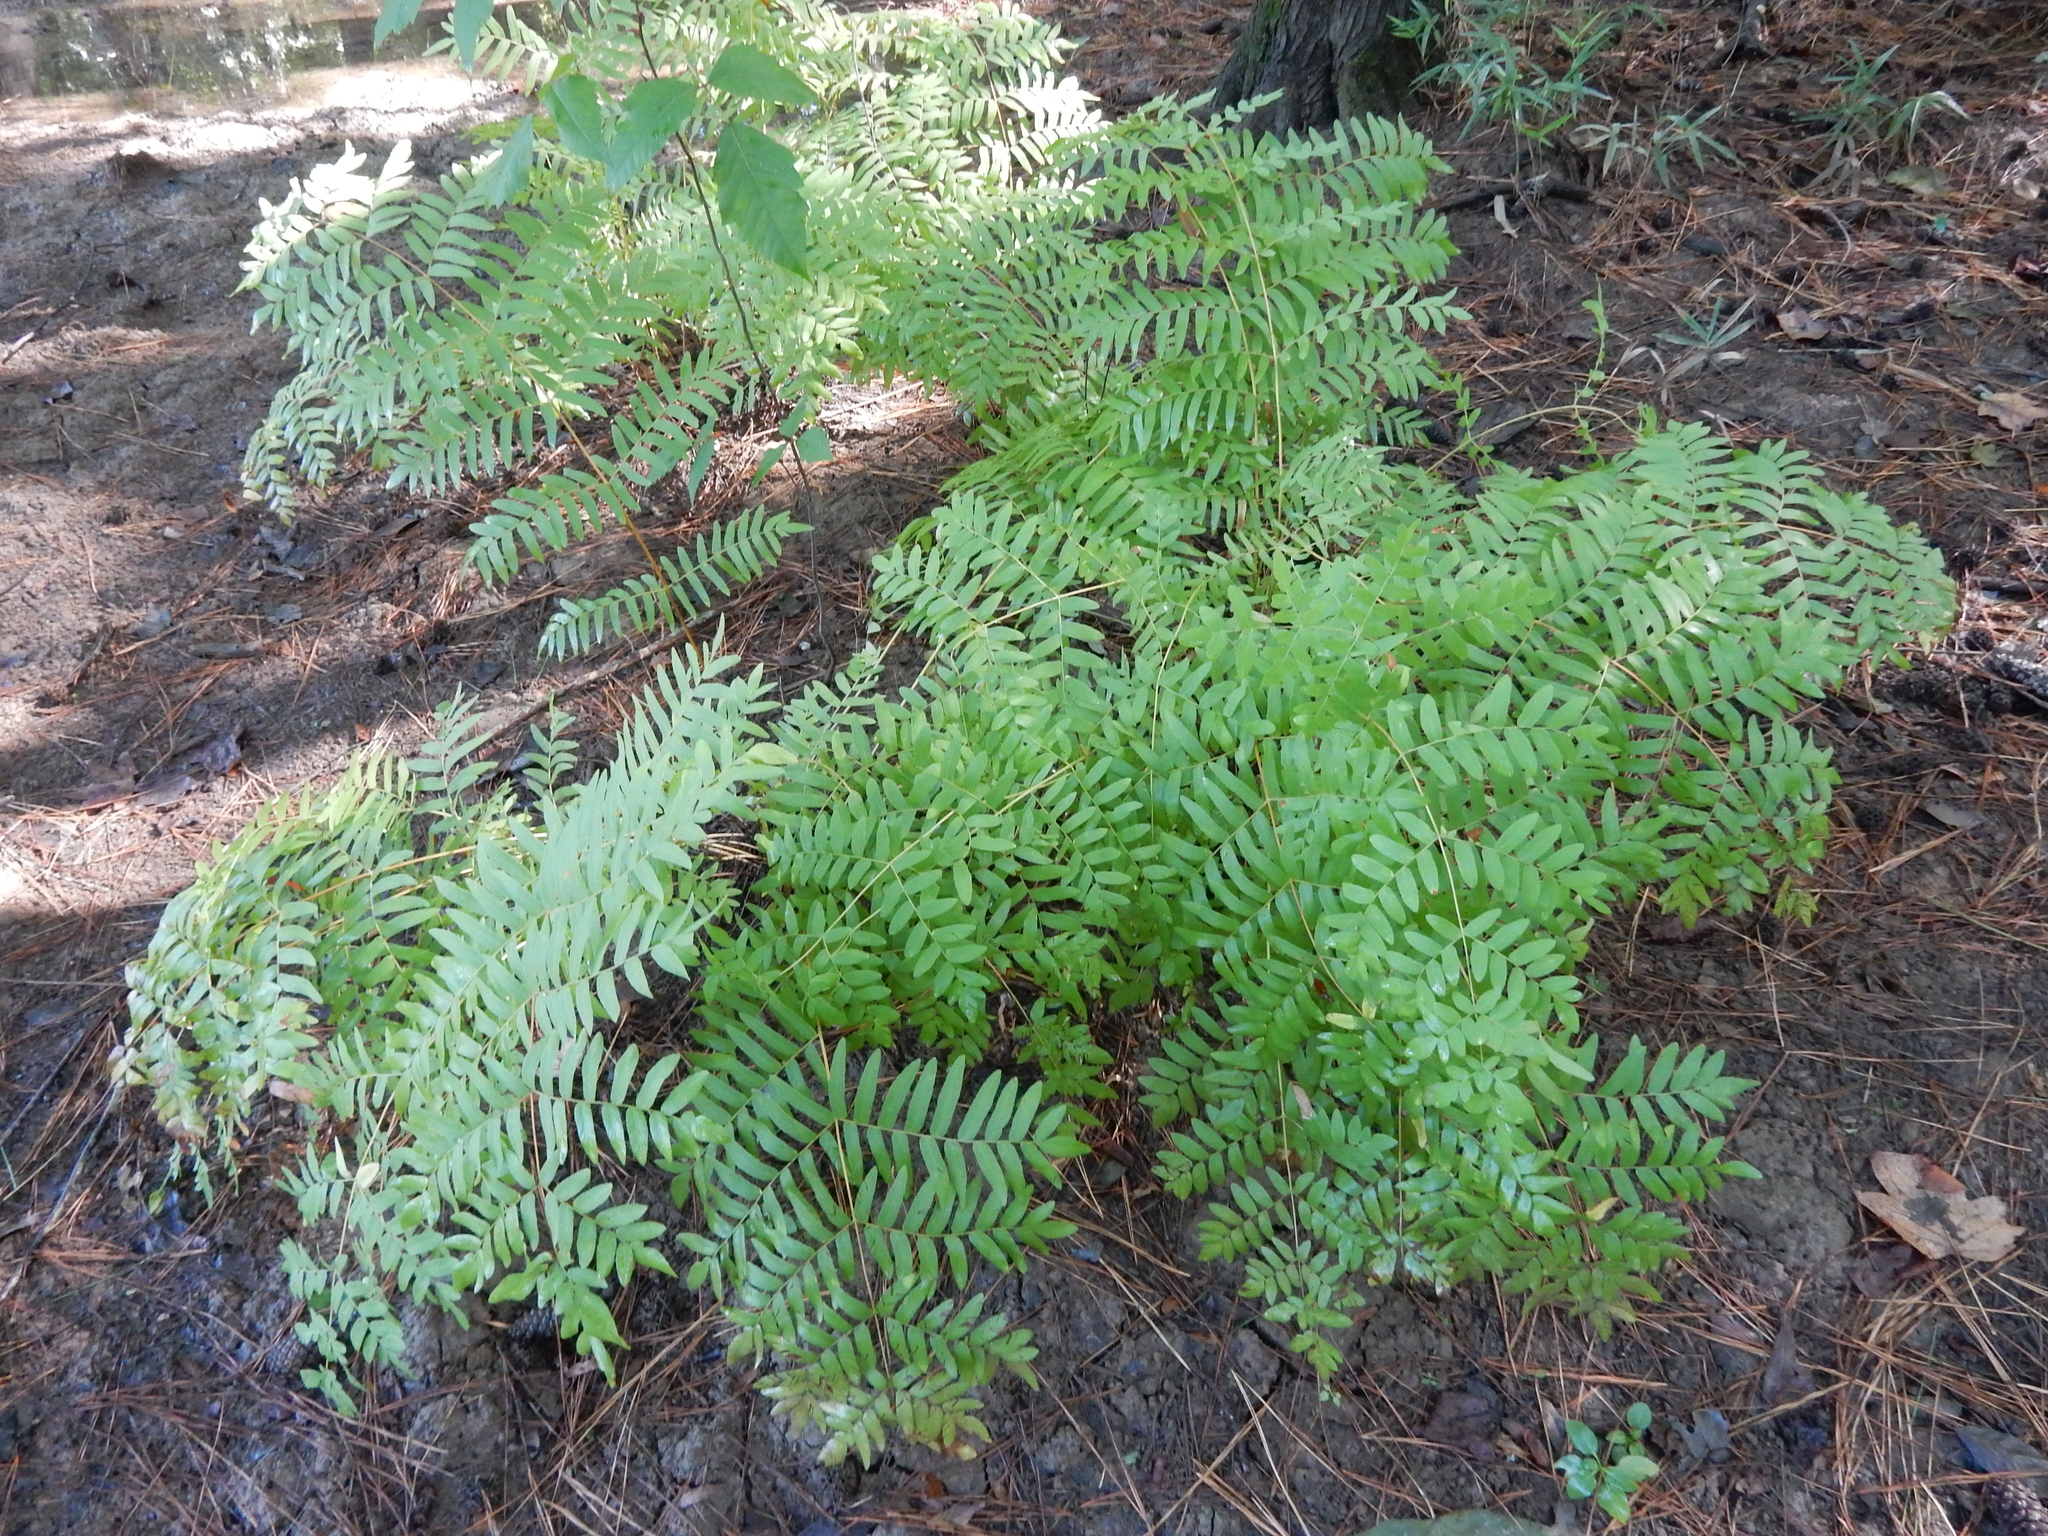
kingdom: Plantae
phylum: Tracheophyta
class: Polypodiopsida
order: Osmundales
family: Osmundaceae
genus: Osmunda
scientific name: Osmunda spectabilis
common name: American royal fern
